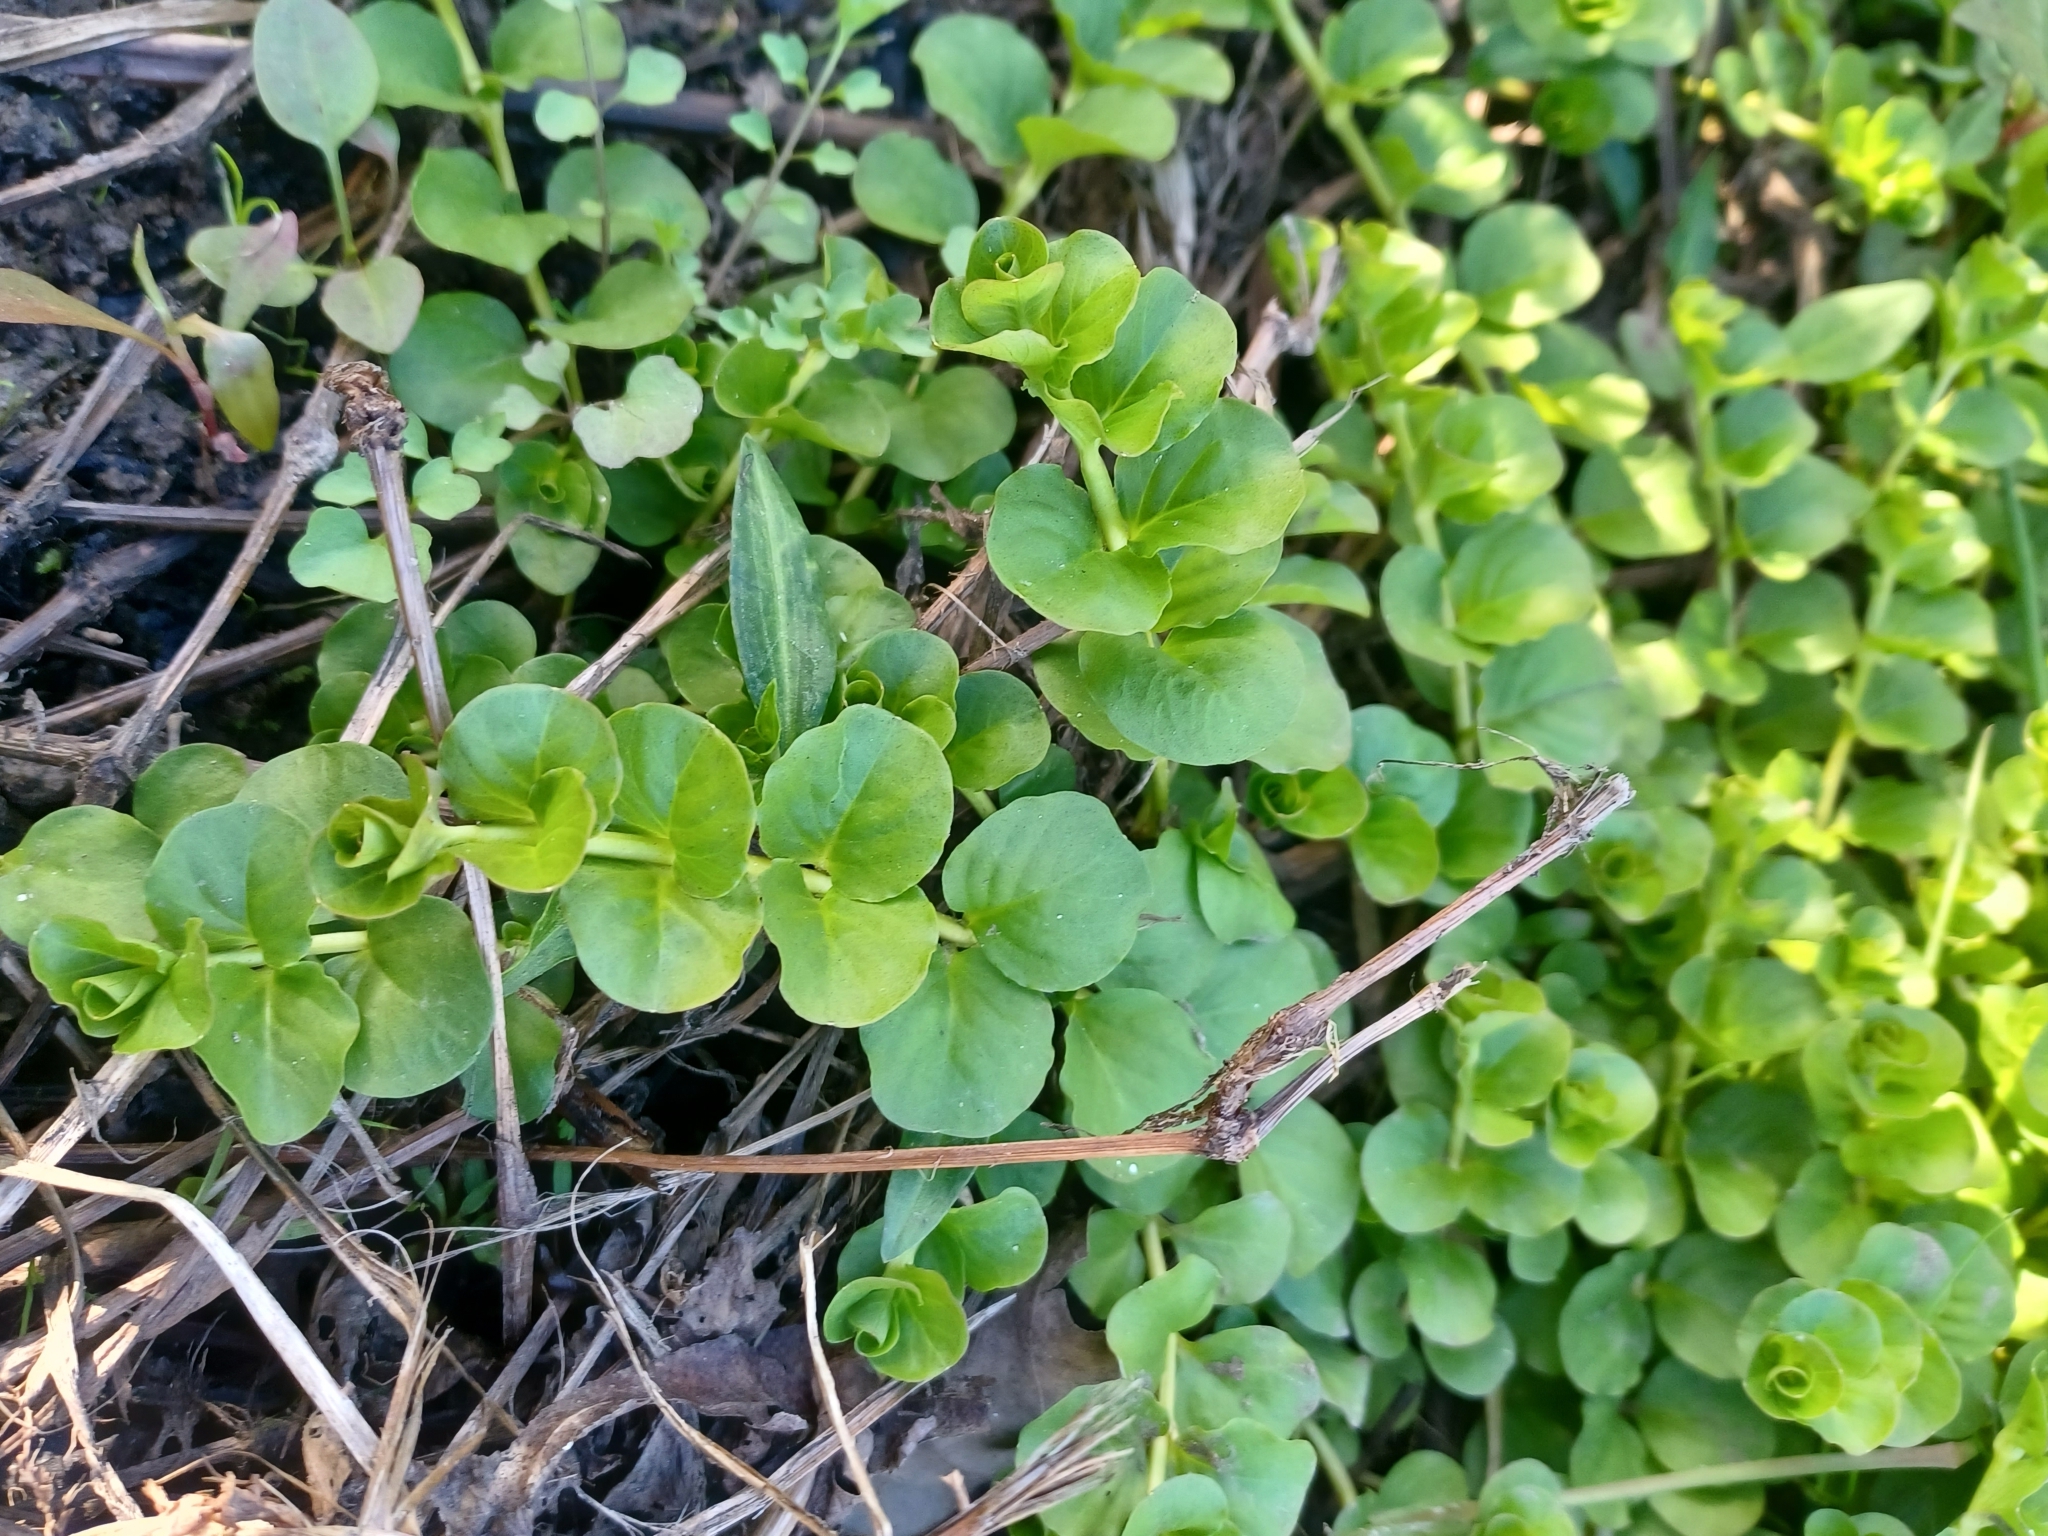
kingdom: Plantae
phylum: Tracheophyta
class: Magnoliopsida
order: Ericales
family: Primulaceae
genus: Lysimachia
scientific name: Lysimachia nummularia
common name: Moneywort
